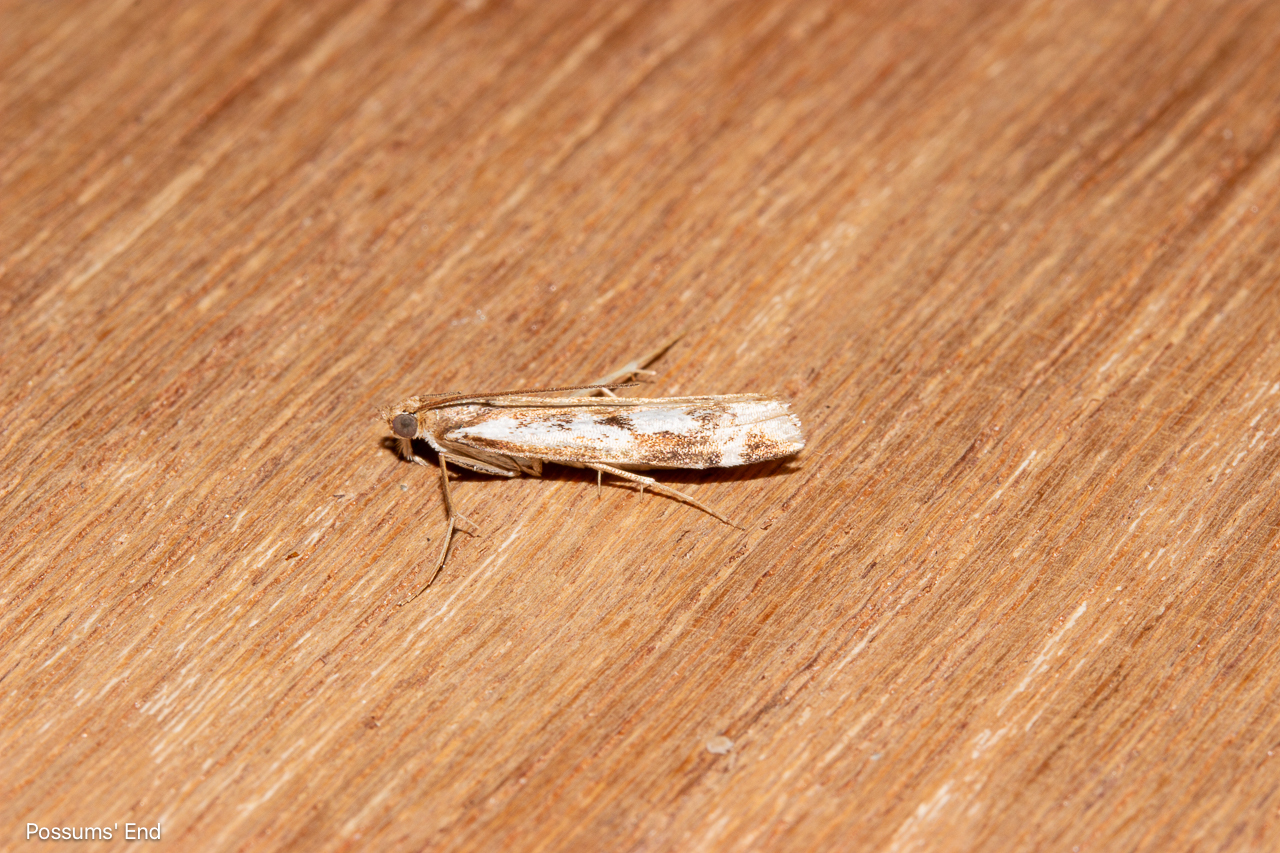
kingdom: Animalia
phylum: Arthropoda
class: Insecta
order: Lepidoptera
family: Crambidae
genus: Orocrambus
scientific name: Orocrambus vulgaris
